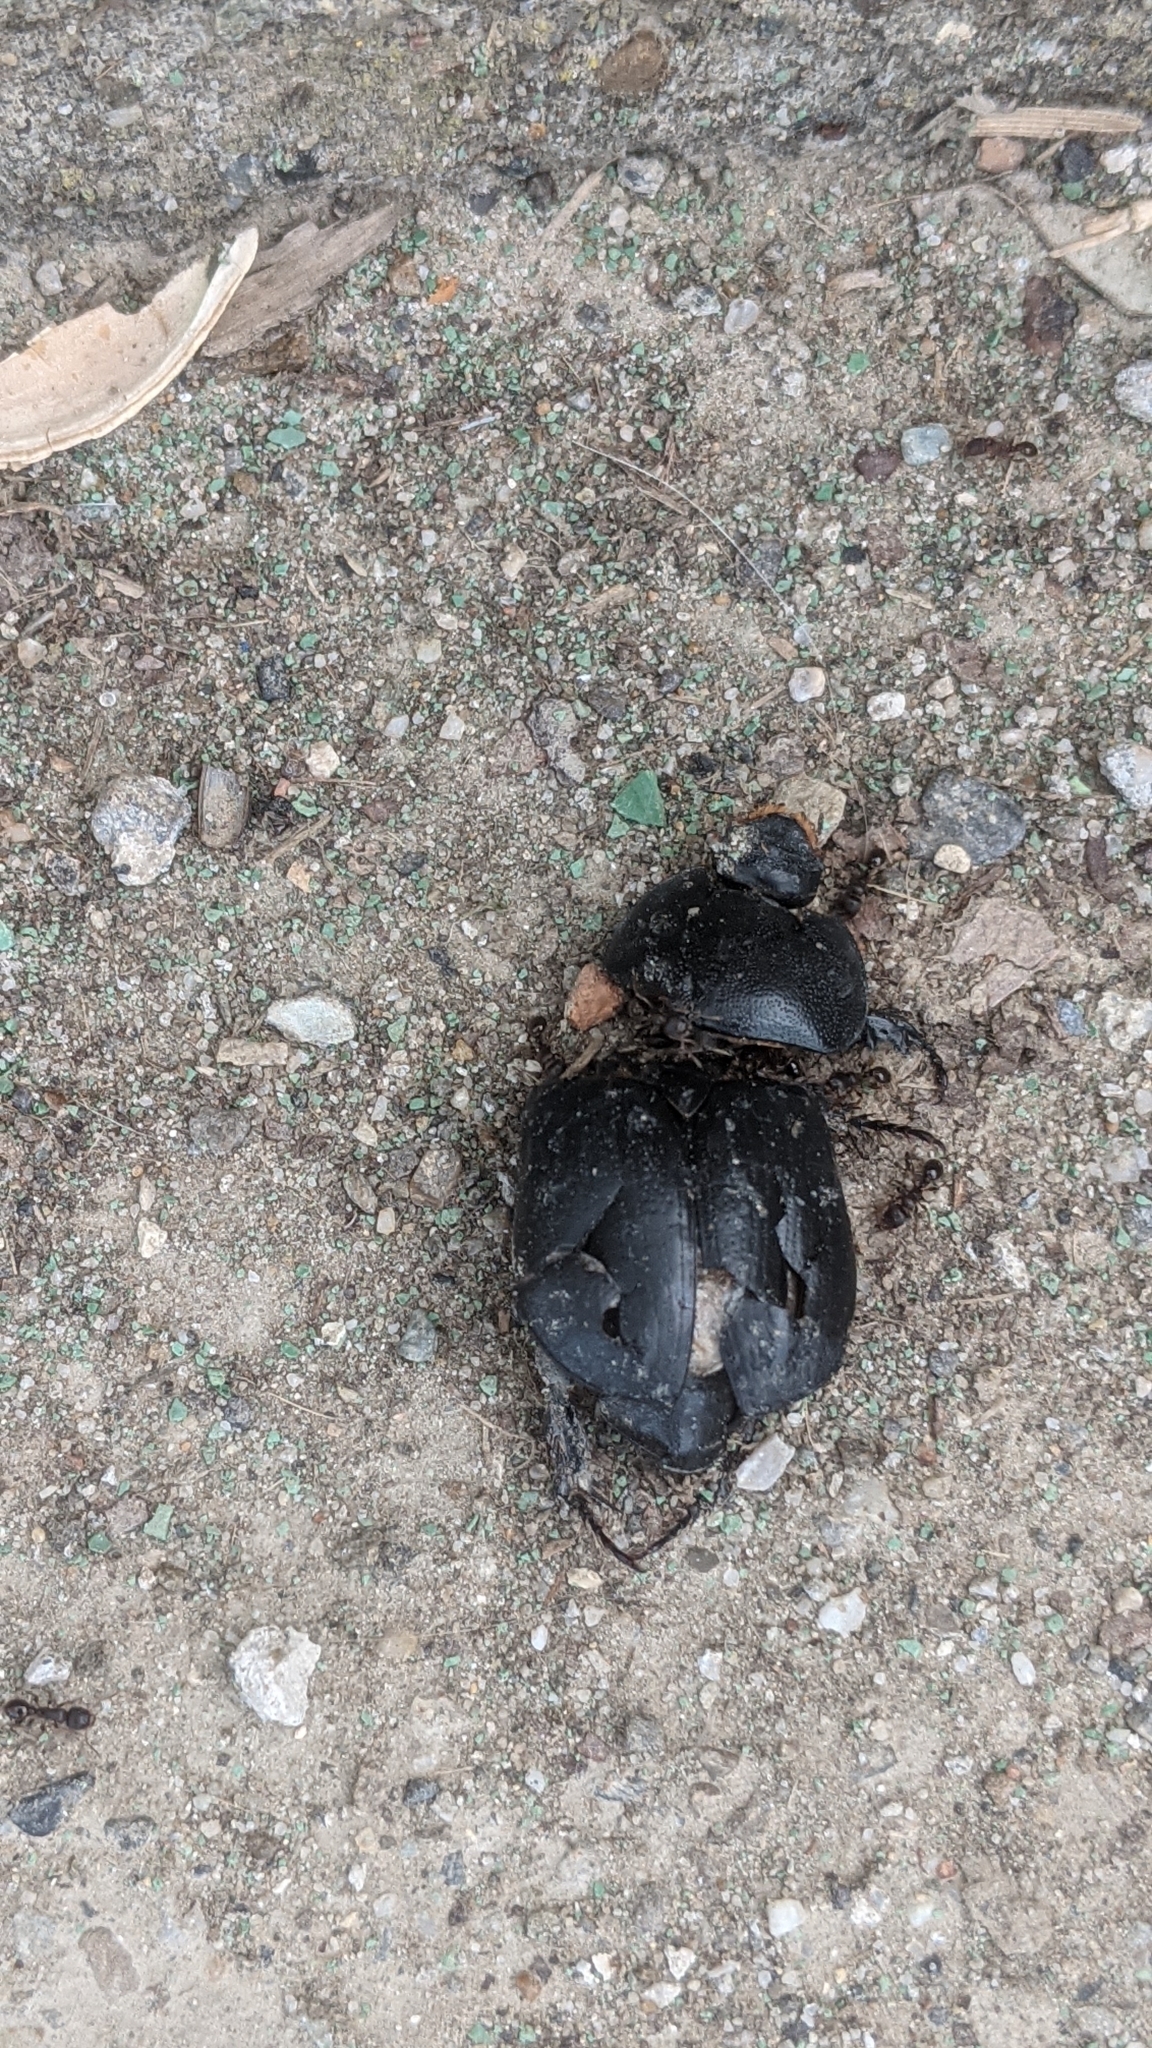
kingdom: Animalia
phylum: Arthropoda
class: Insecta
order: Coleoptera
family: Scarabaeidae
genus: Pentodon
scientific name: Pentodon idiota
